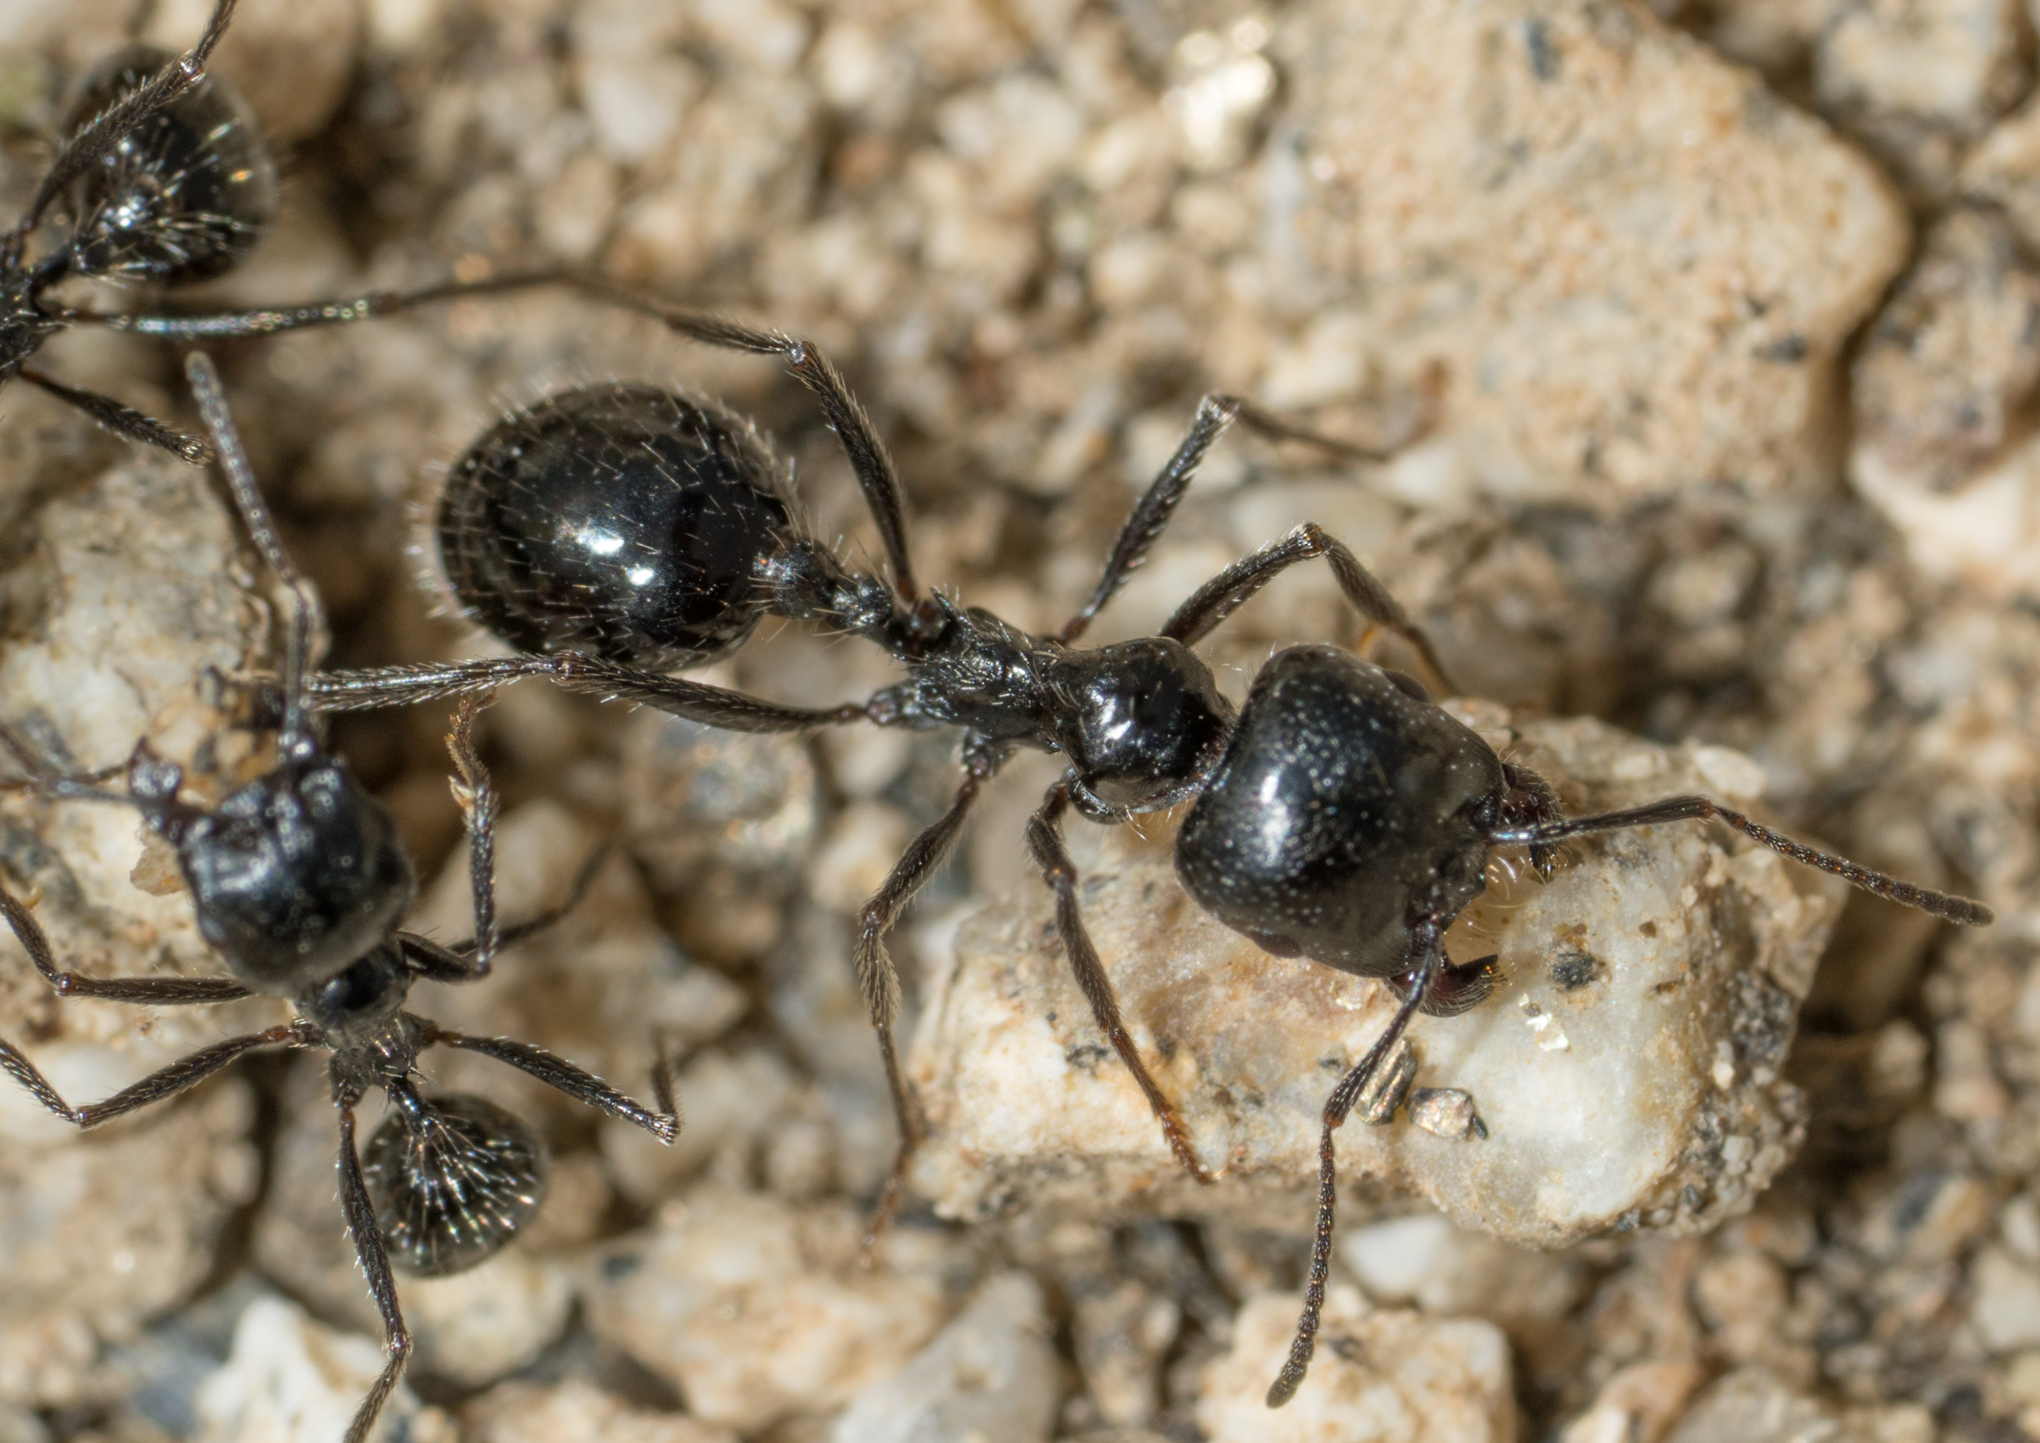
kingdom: Animalia
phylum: Arthropoda
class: Insecta
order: Hymenoptera
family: Formicidae
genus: Messor
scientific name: Messor pergandei
